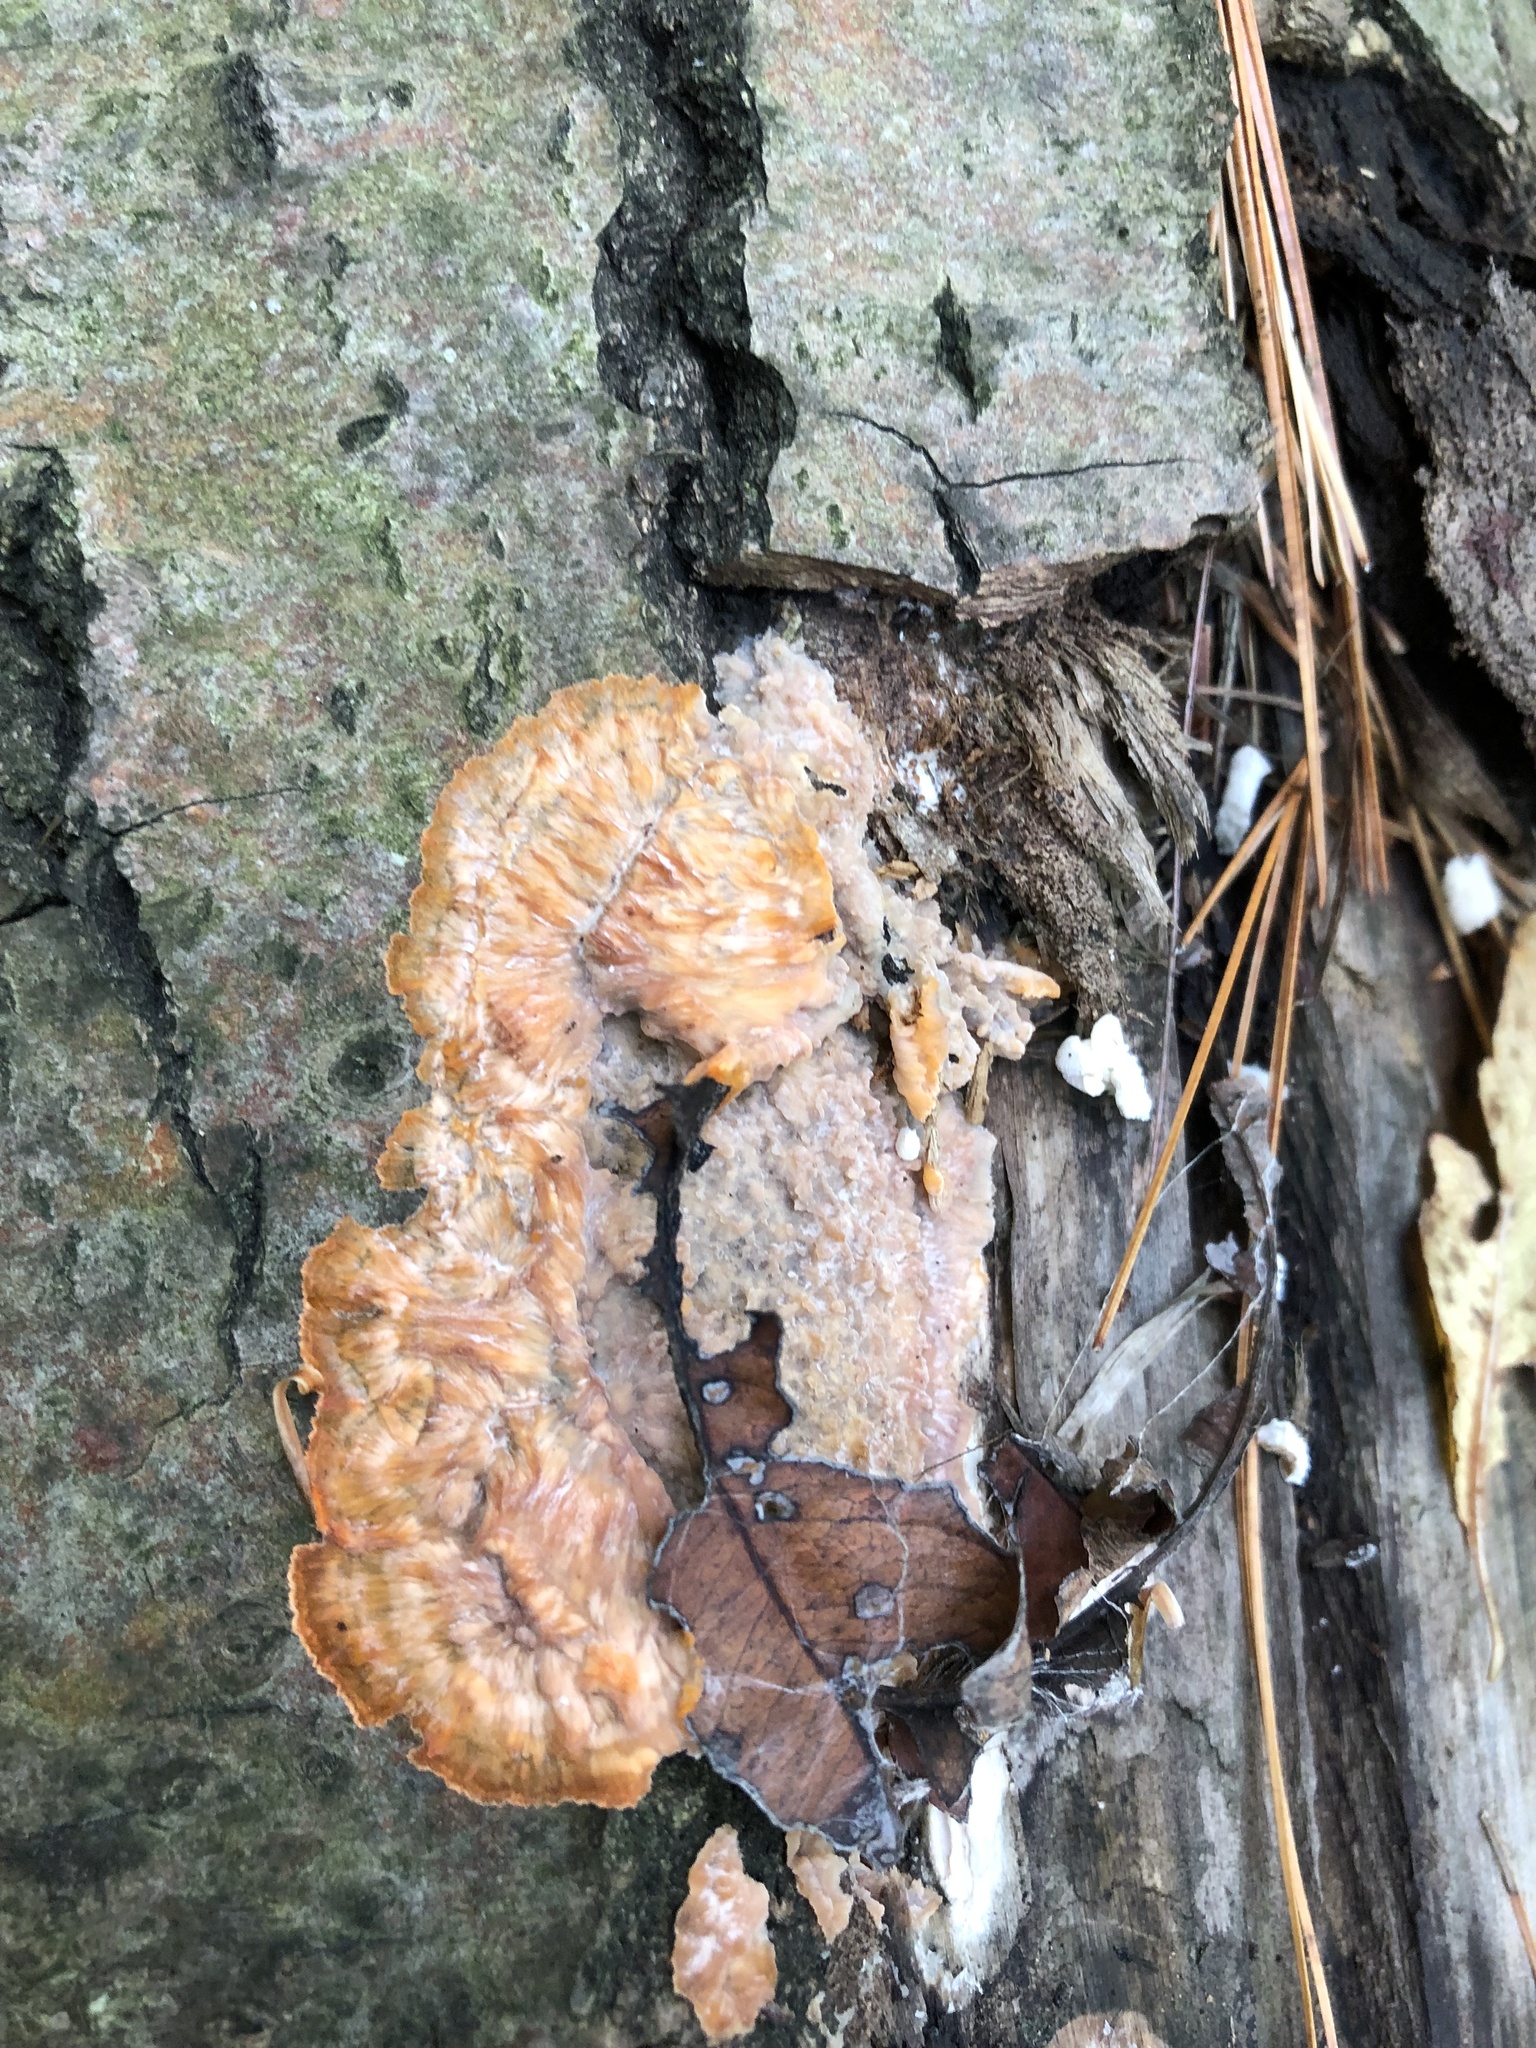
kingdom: Fungi
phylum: Basidiomycota
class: Agaricomycetes
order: Polyporales
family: Meruliaceae
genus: Phlebia
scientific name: Phlebia radiata
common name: Wrinkled crust
